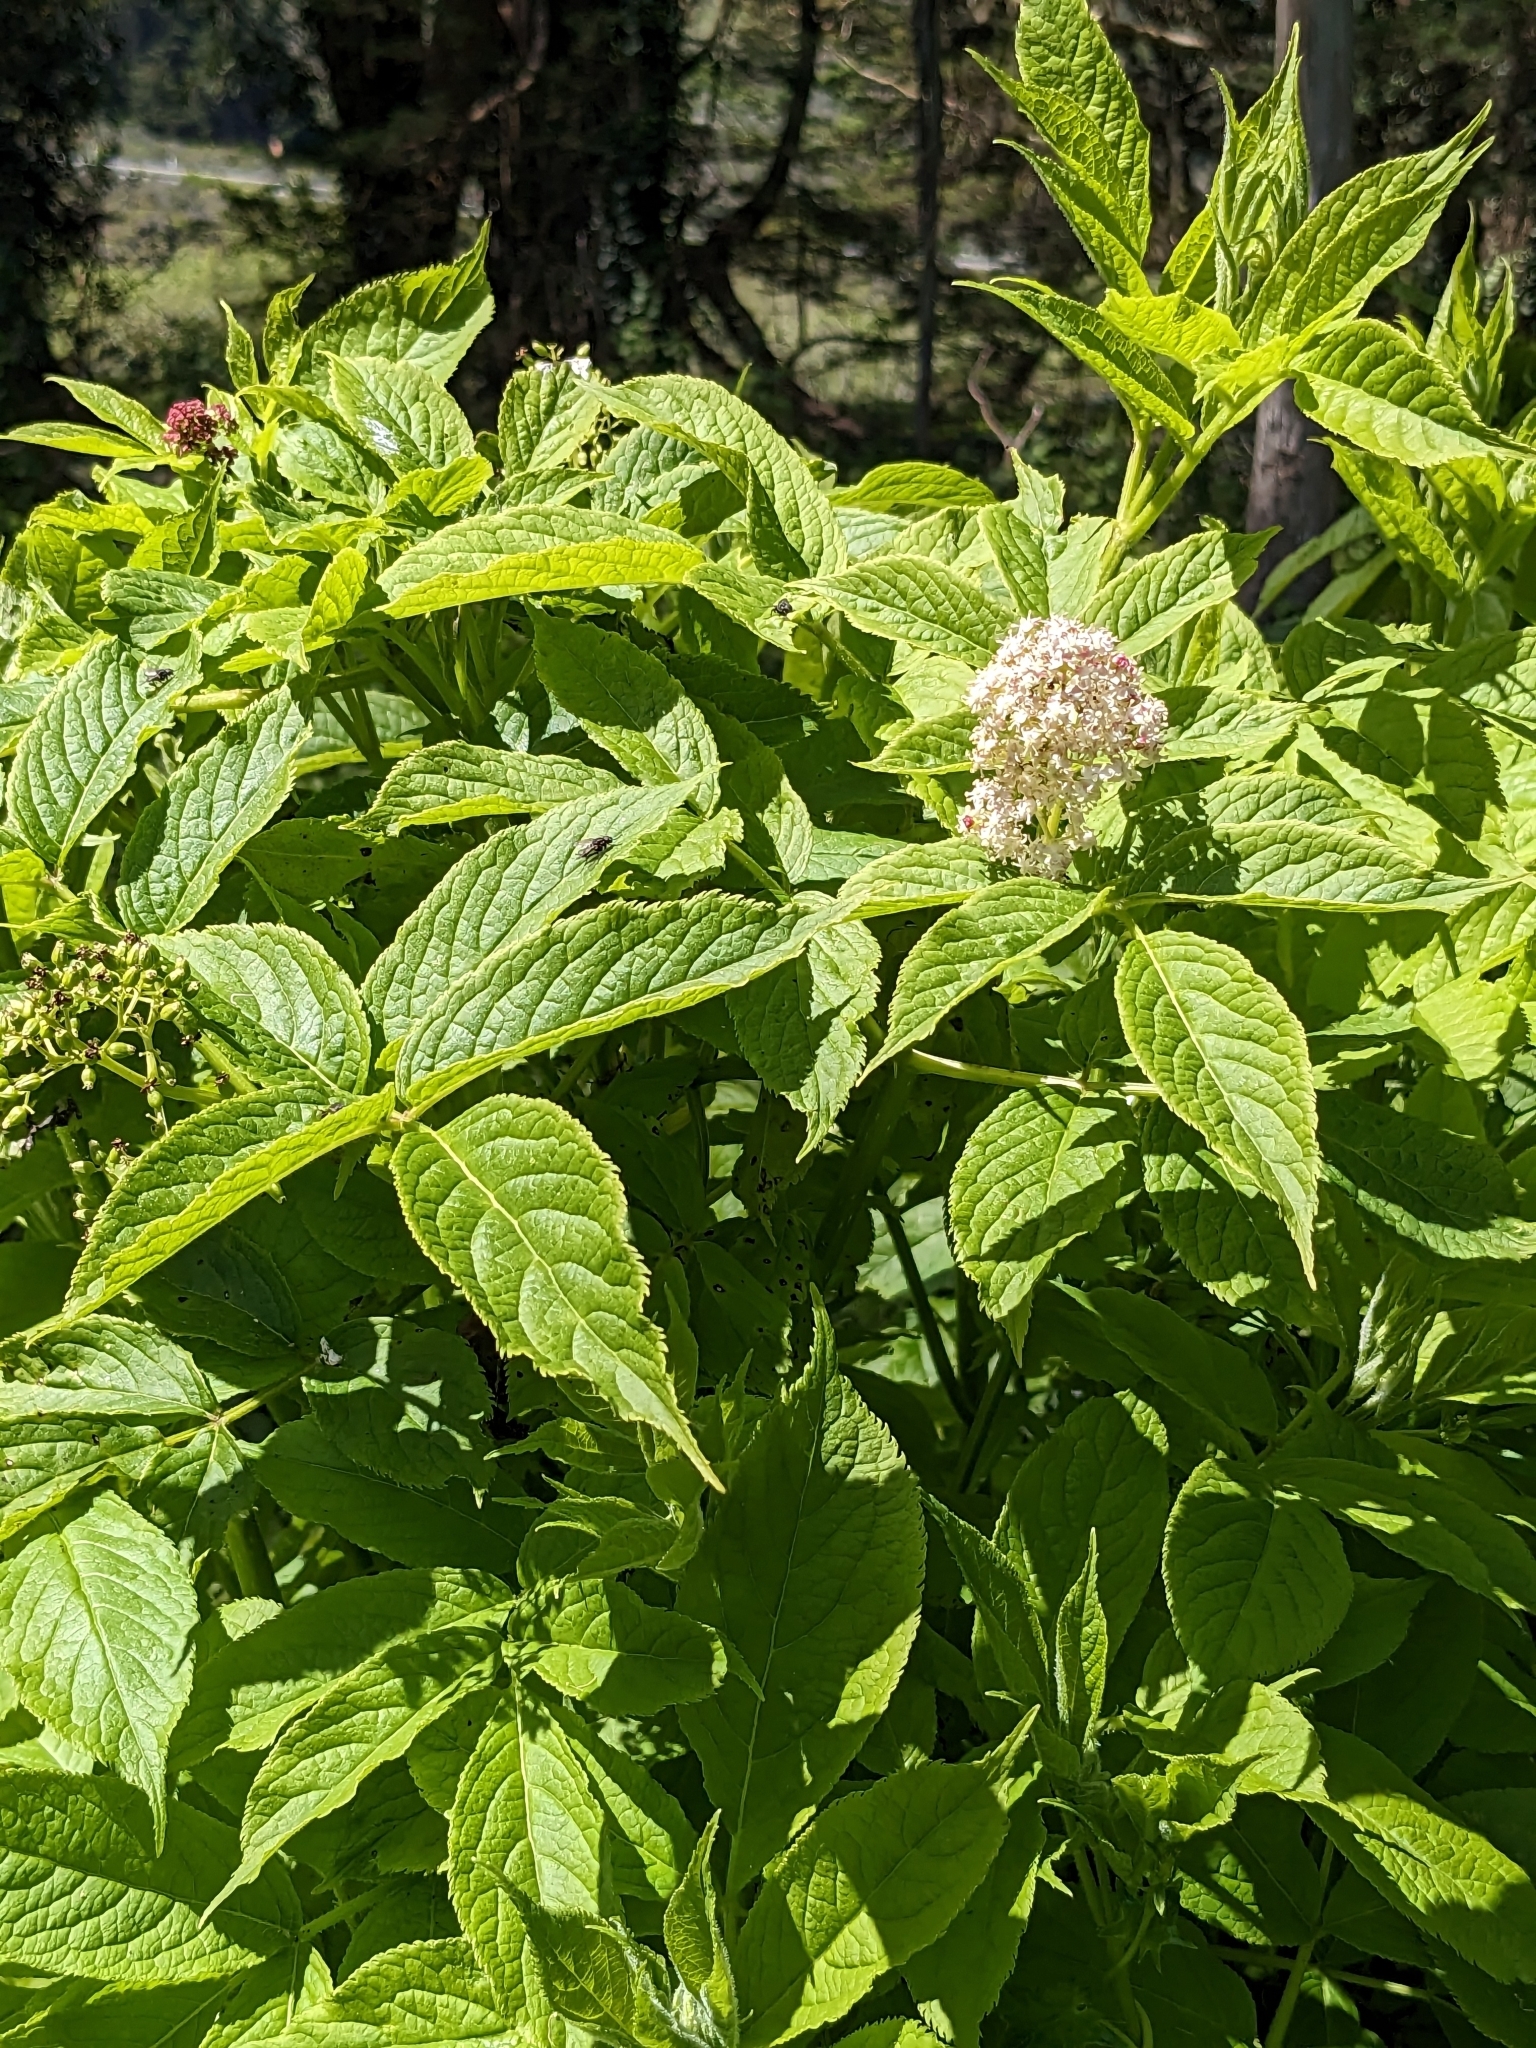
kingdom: Plantae
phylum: Tracheophyta
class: Magnoliopsida
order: Dipsacales
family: Viburnaceae
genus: Sambucus
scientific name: Sambucus racemosa
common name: Red-berried elder
